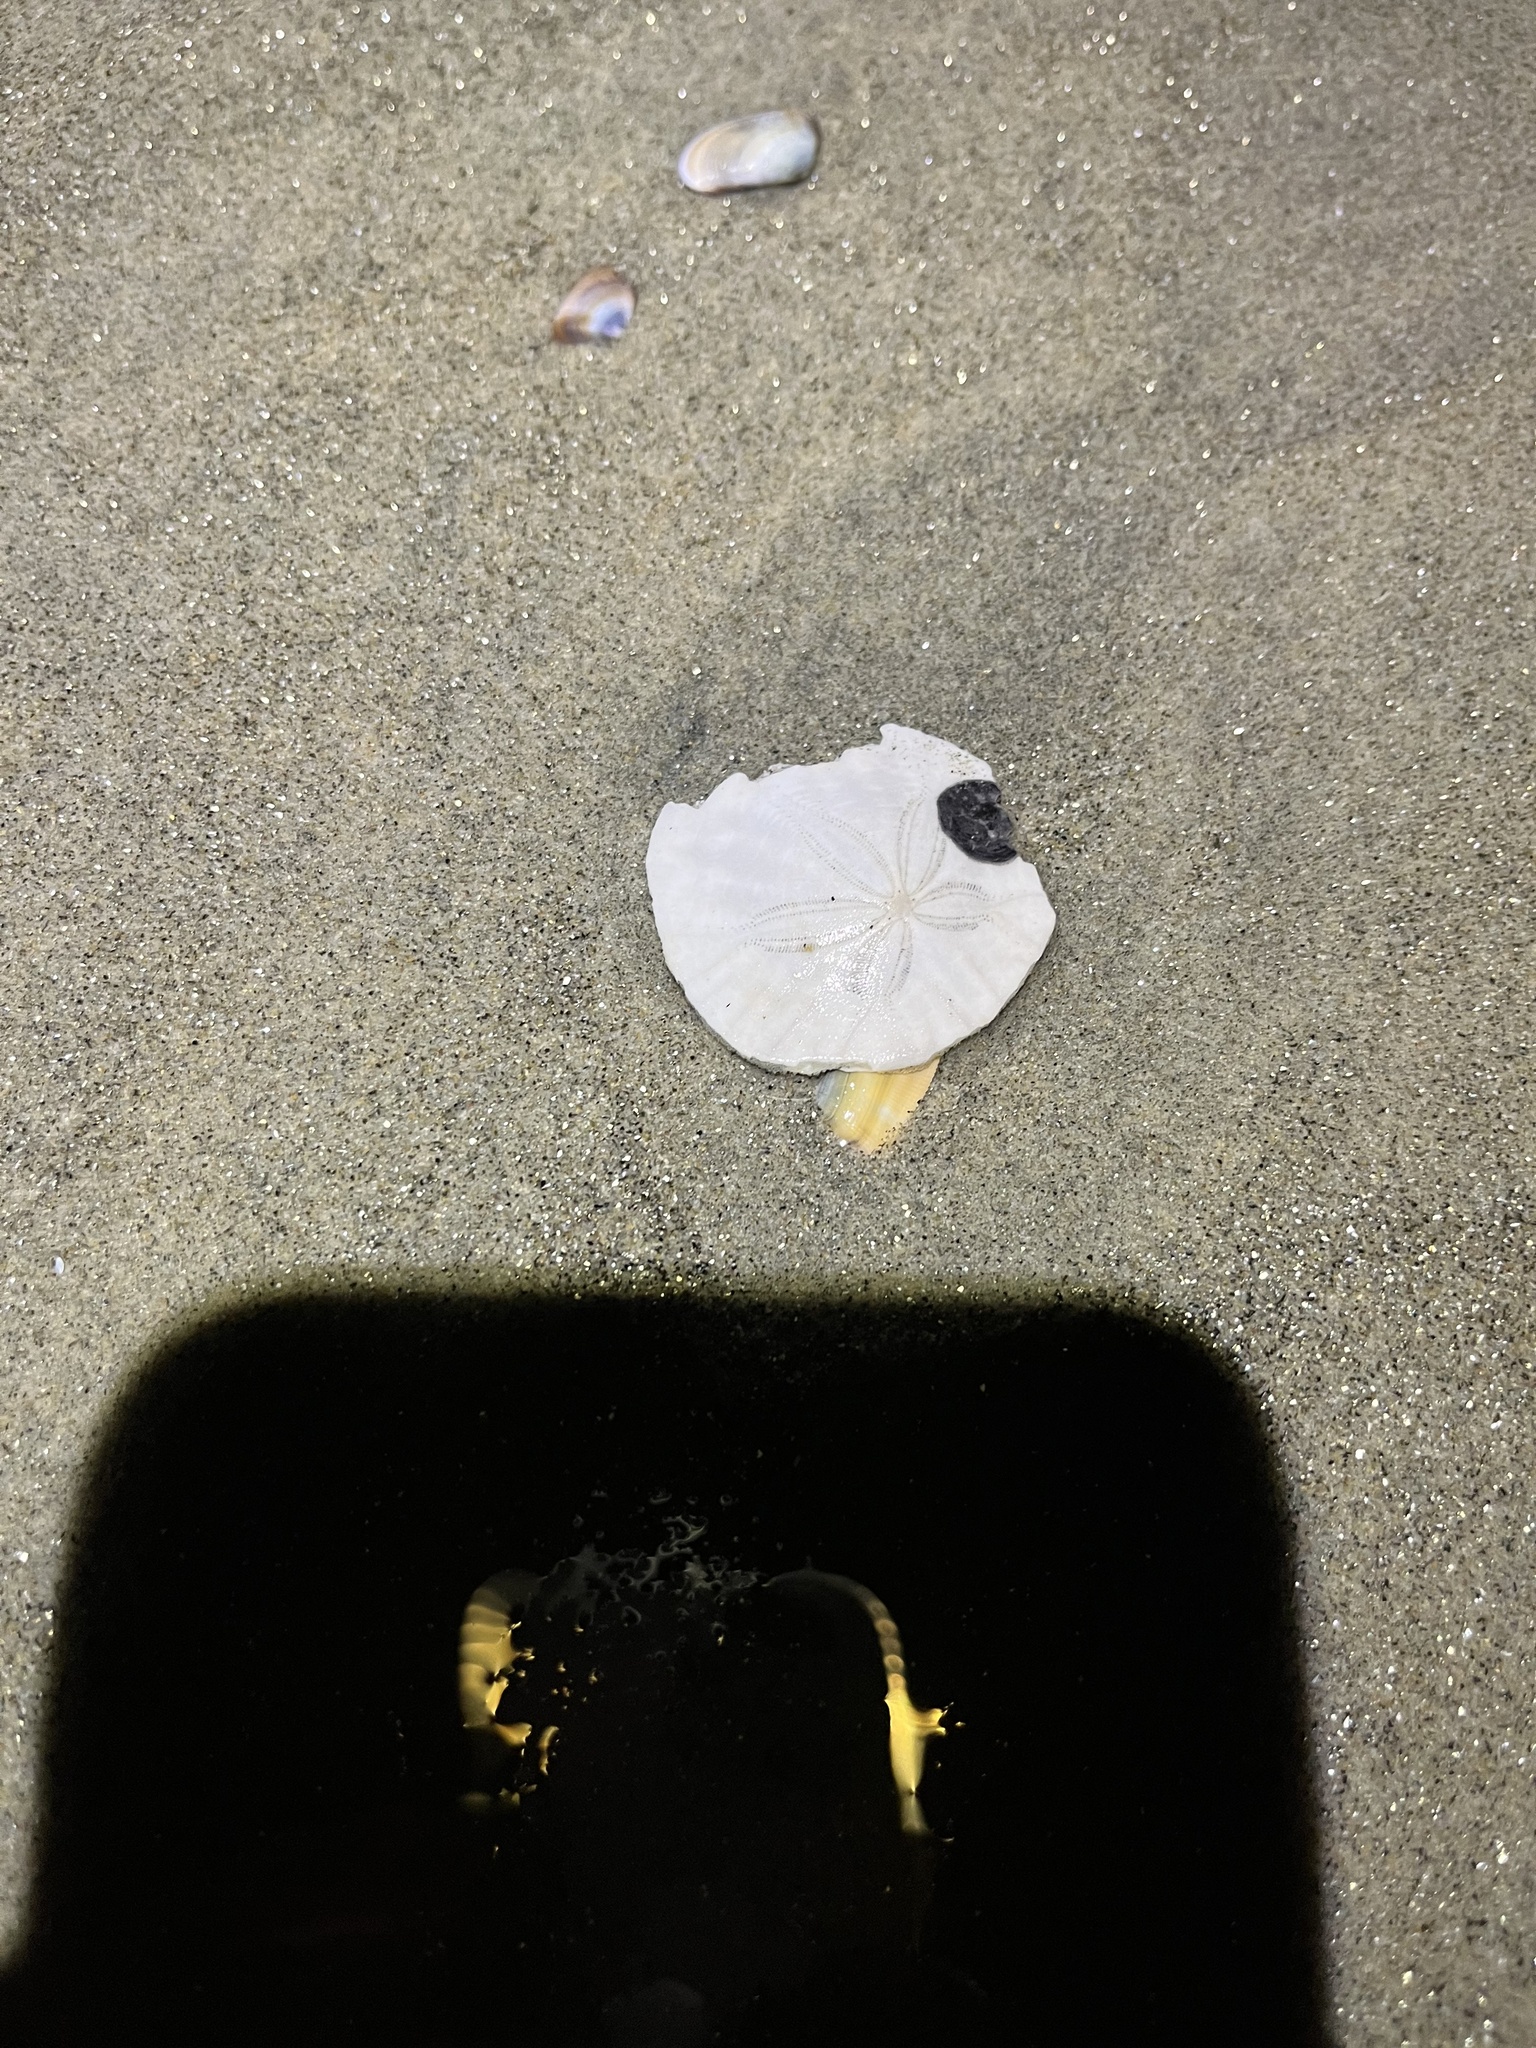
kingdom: Animalia
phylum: Echinodermata
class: Echinoidea
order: Echinolampadacea
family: Dendrasteridae
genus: Dendraster
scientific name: Dendraster excentricus
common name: Eccentric sand dollar sea urchin
